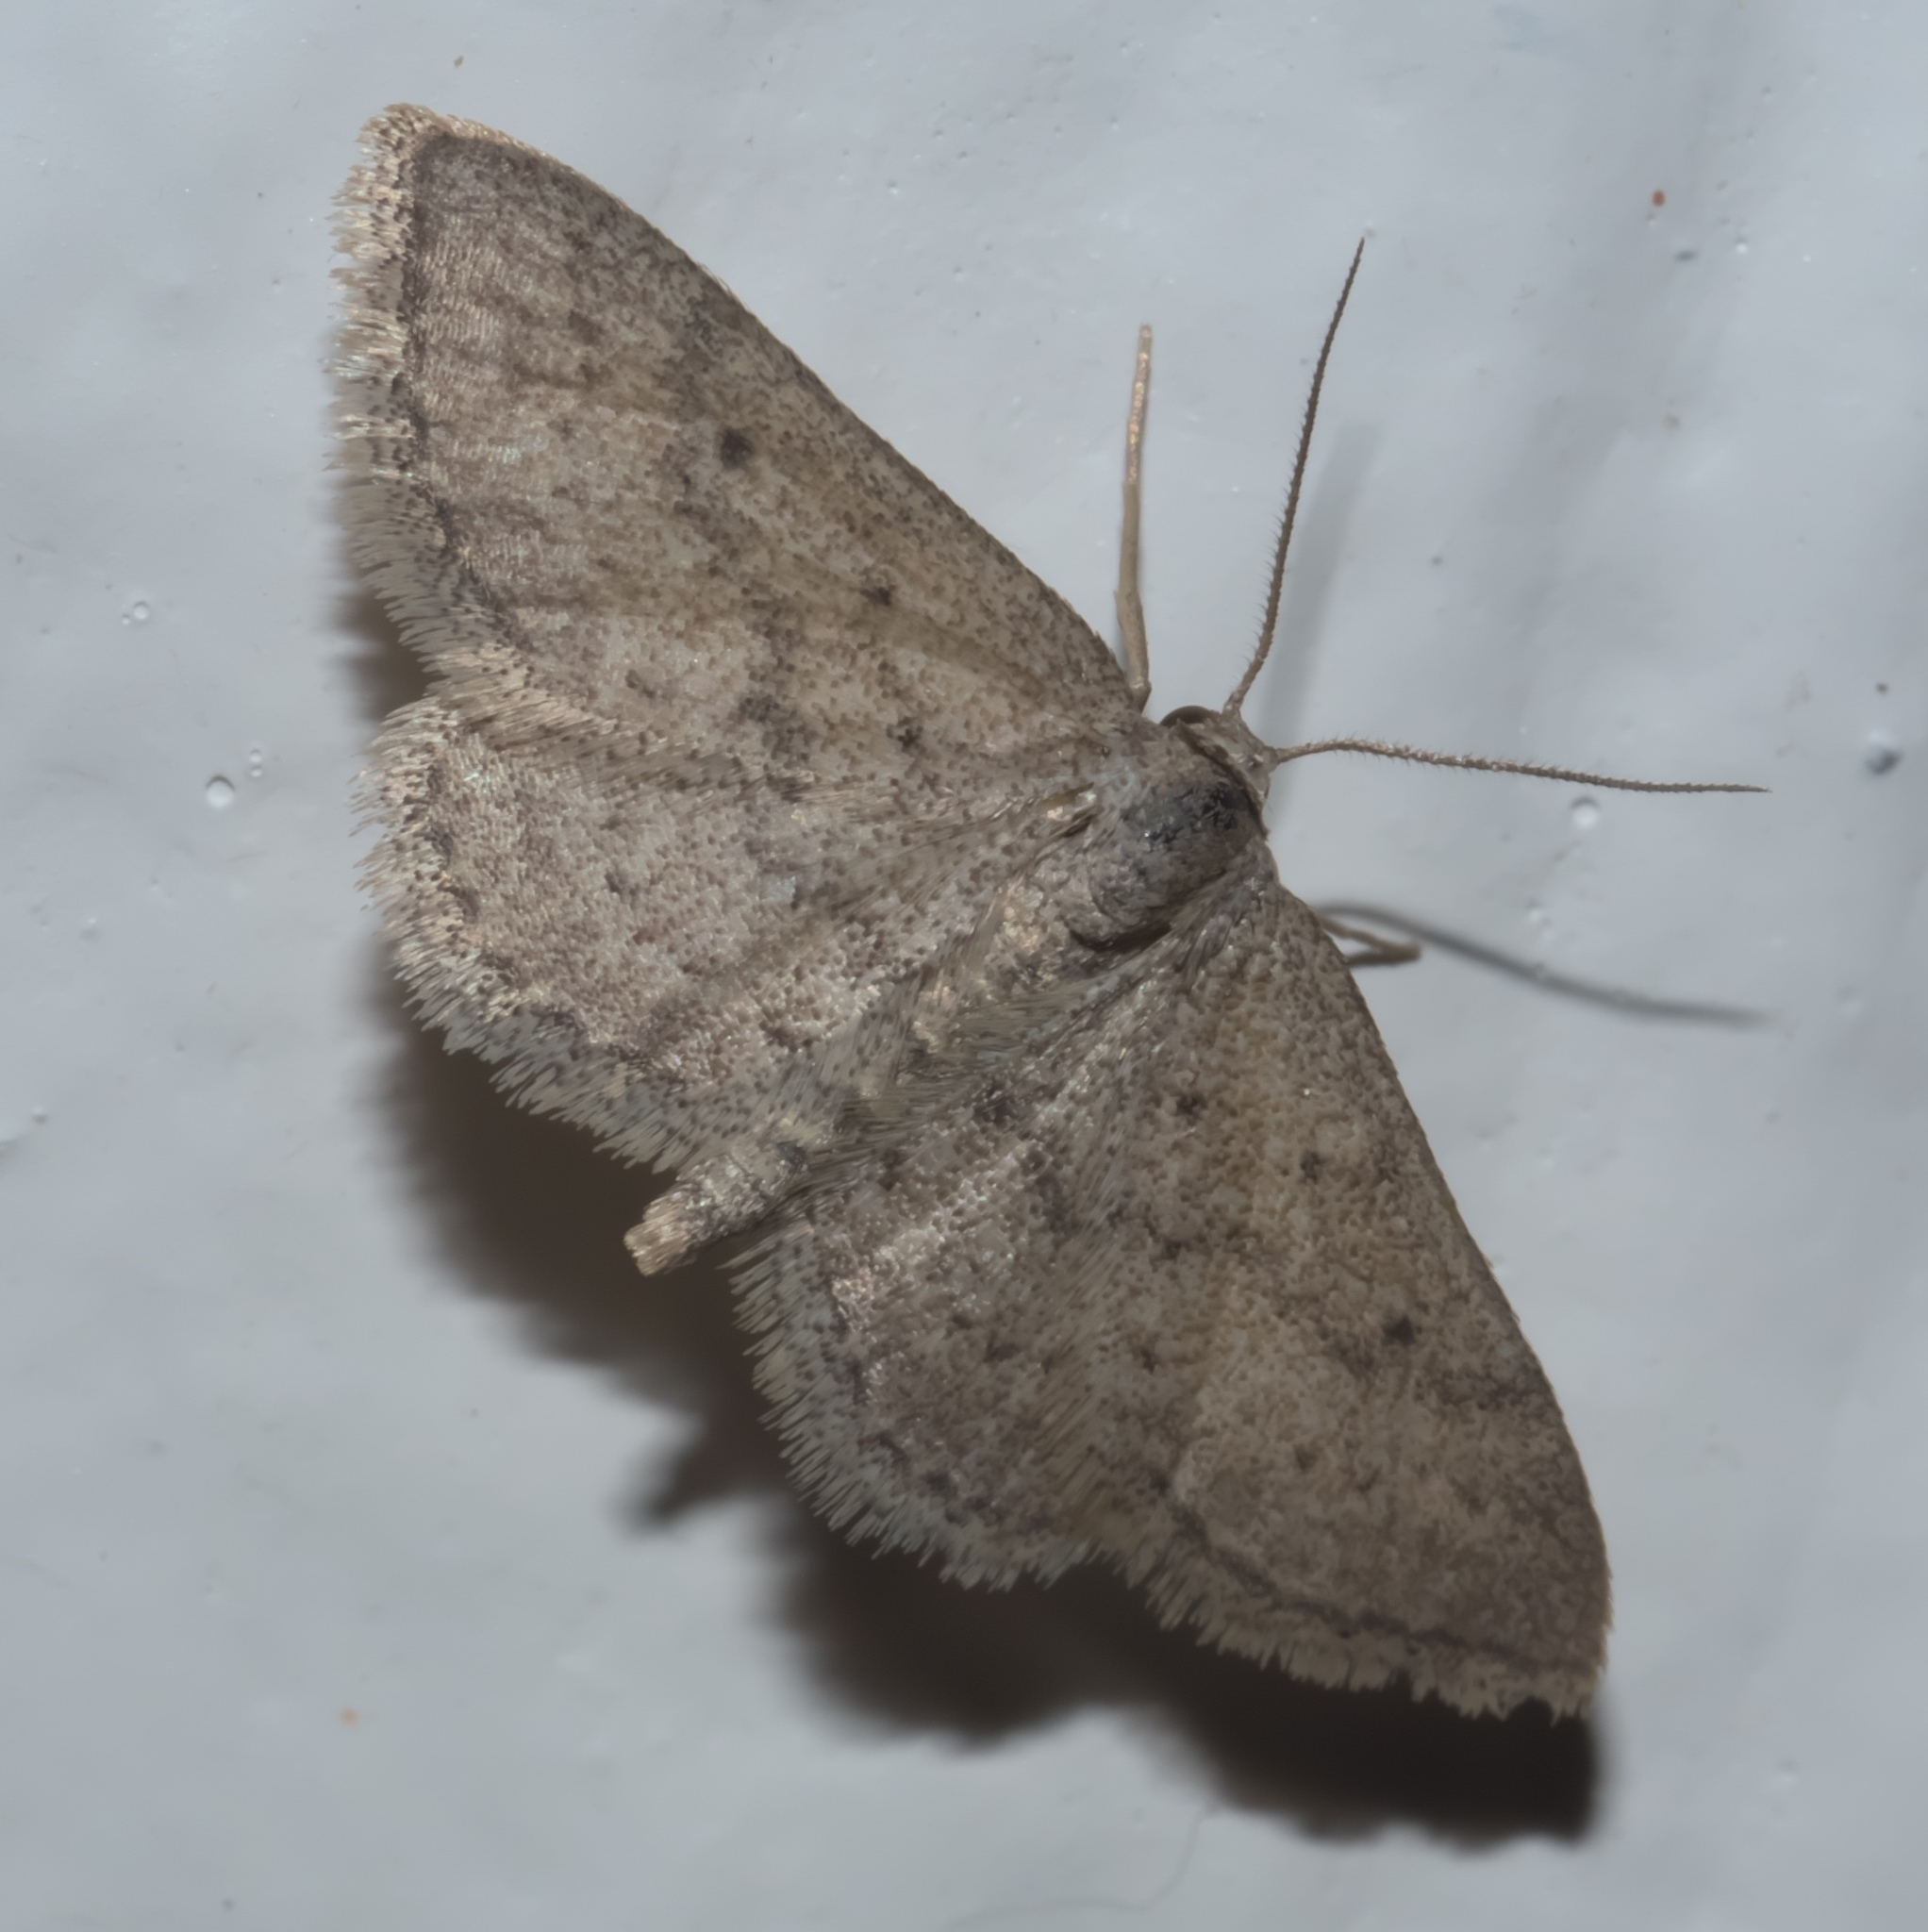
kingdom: Animalia
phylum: Arthropoda
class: Insecta
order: Lepidoptera
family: Geometridae
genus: Lobocleta
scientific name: Lobocleta ossularia
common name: Drab brown wave
